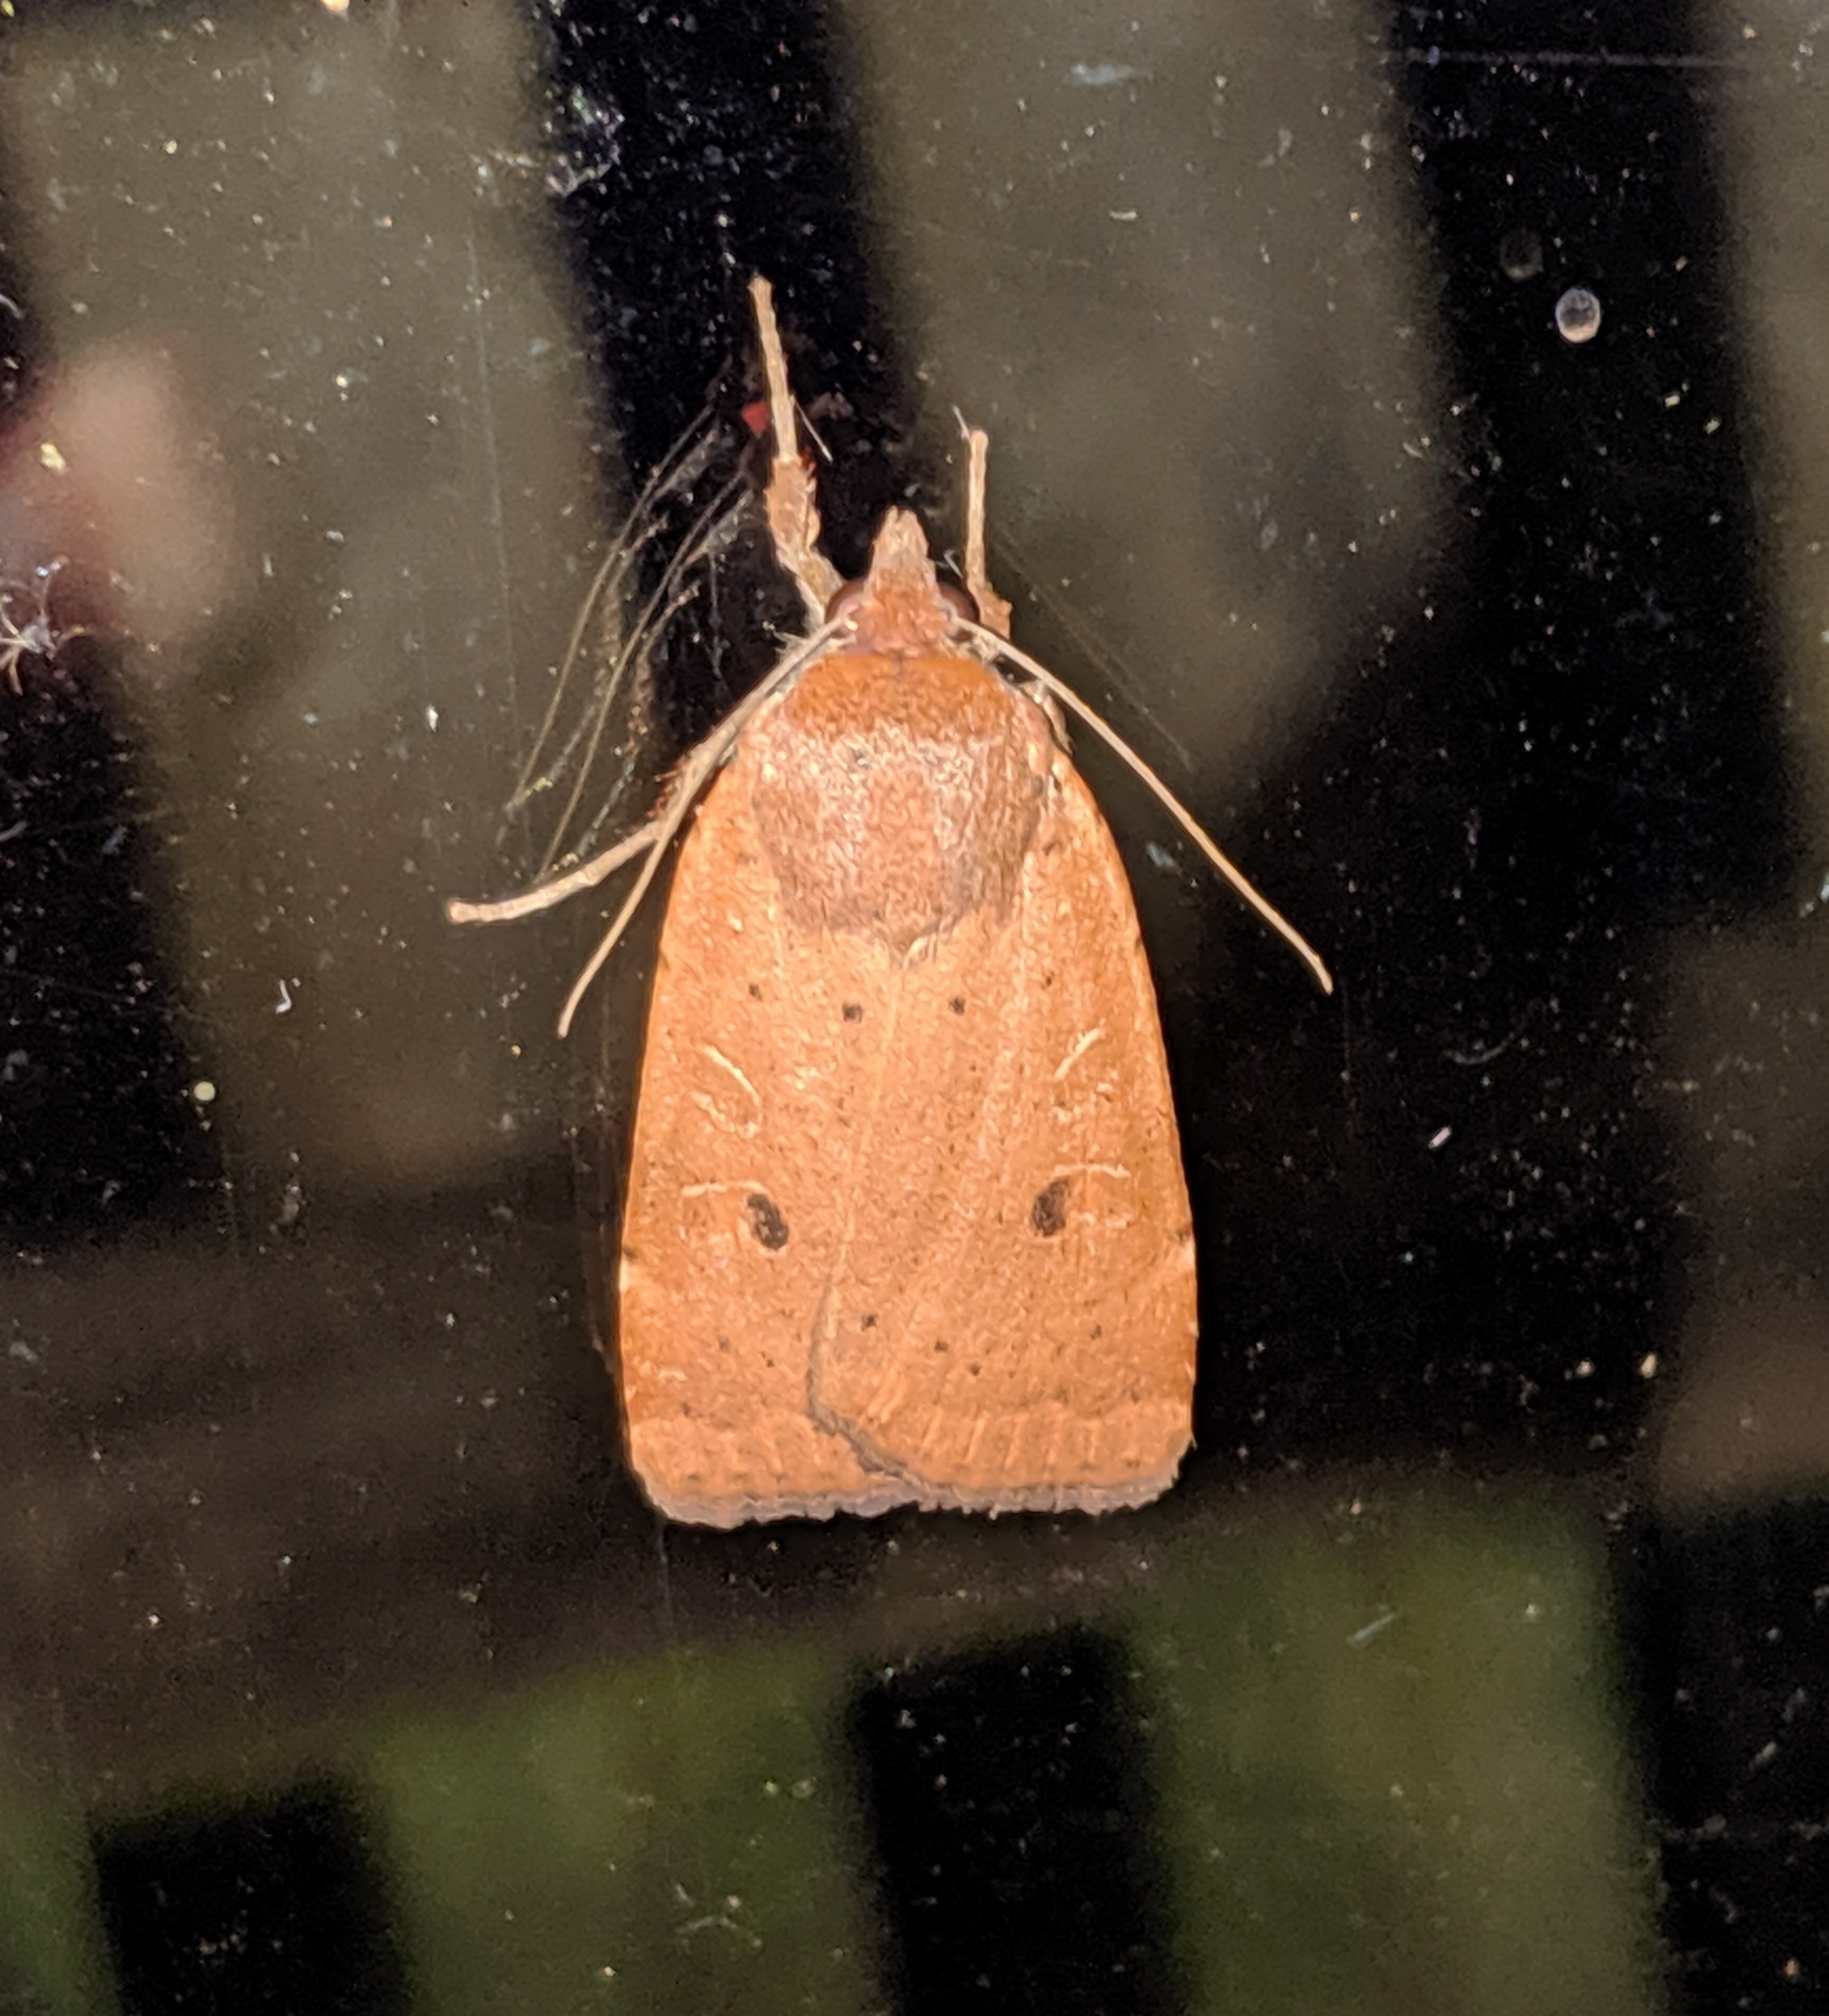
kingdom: Animalia
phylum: Arthropoda
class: Insecta
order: Lepidoptera
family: Noctuidae
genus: Noctua
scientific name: Noctua comes
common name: Lesser yellow underwing
